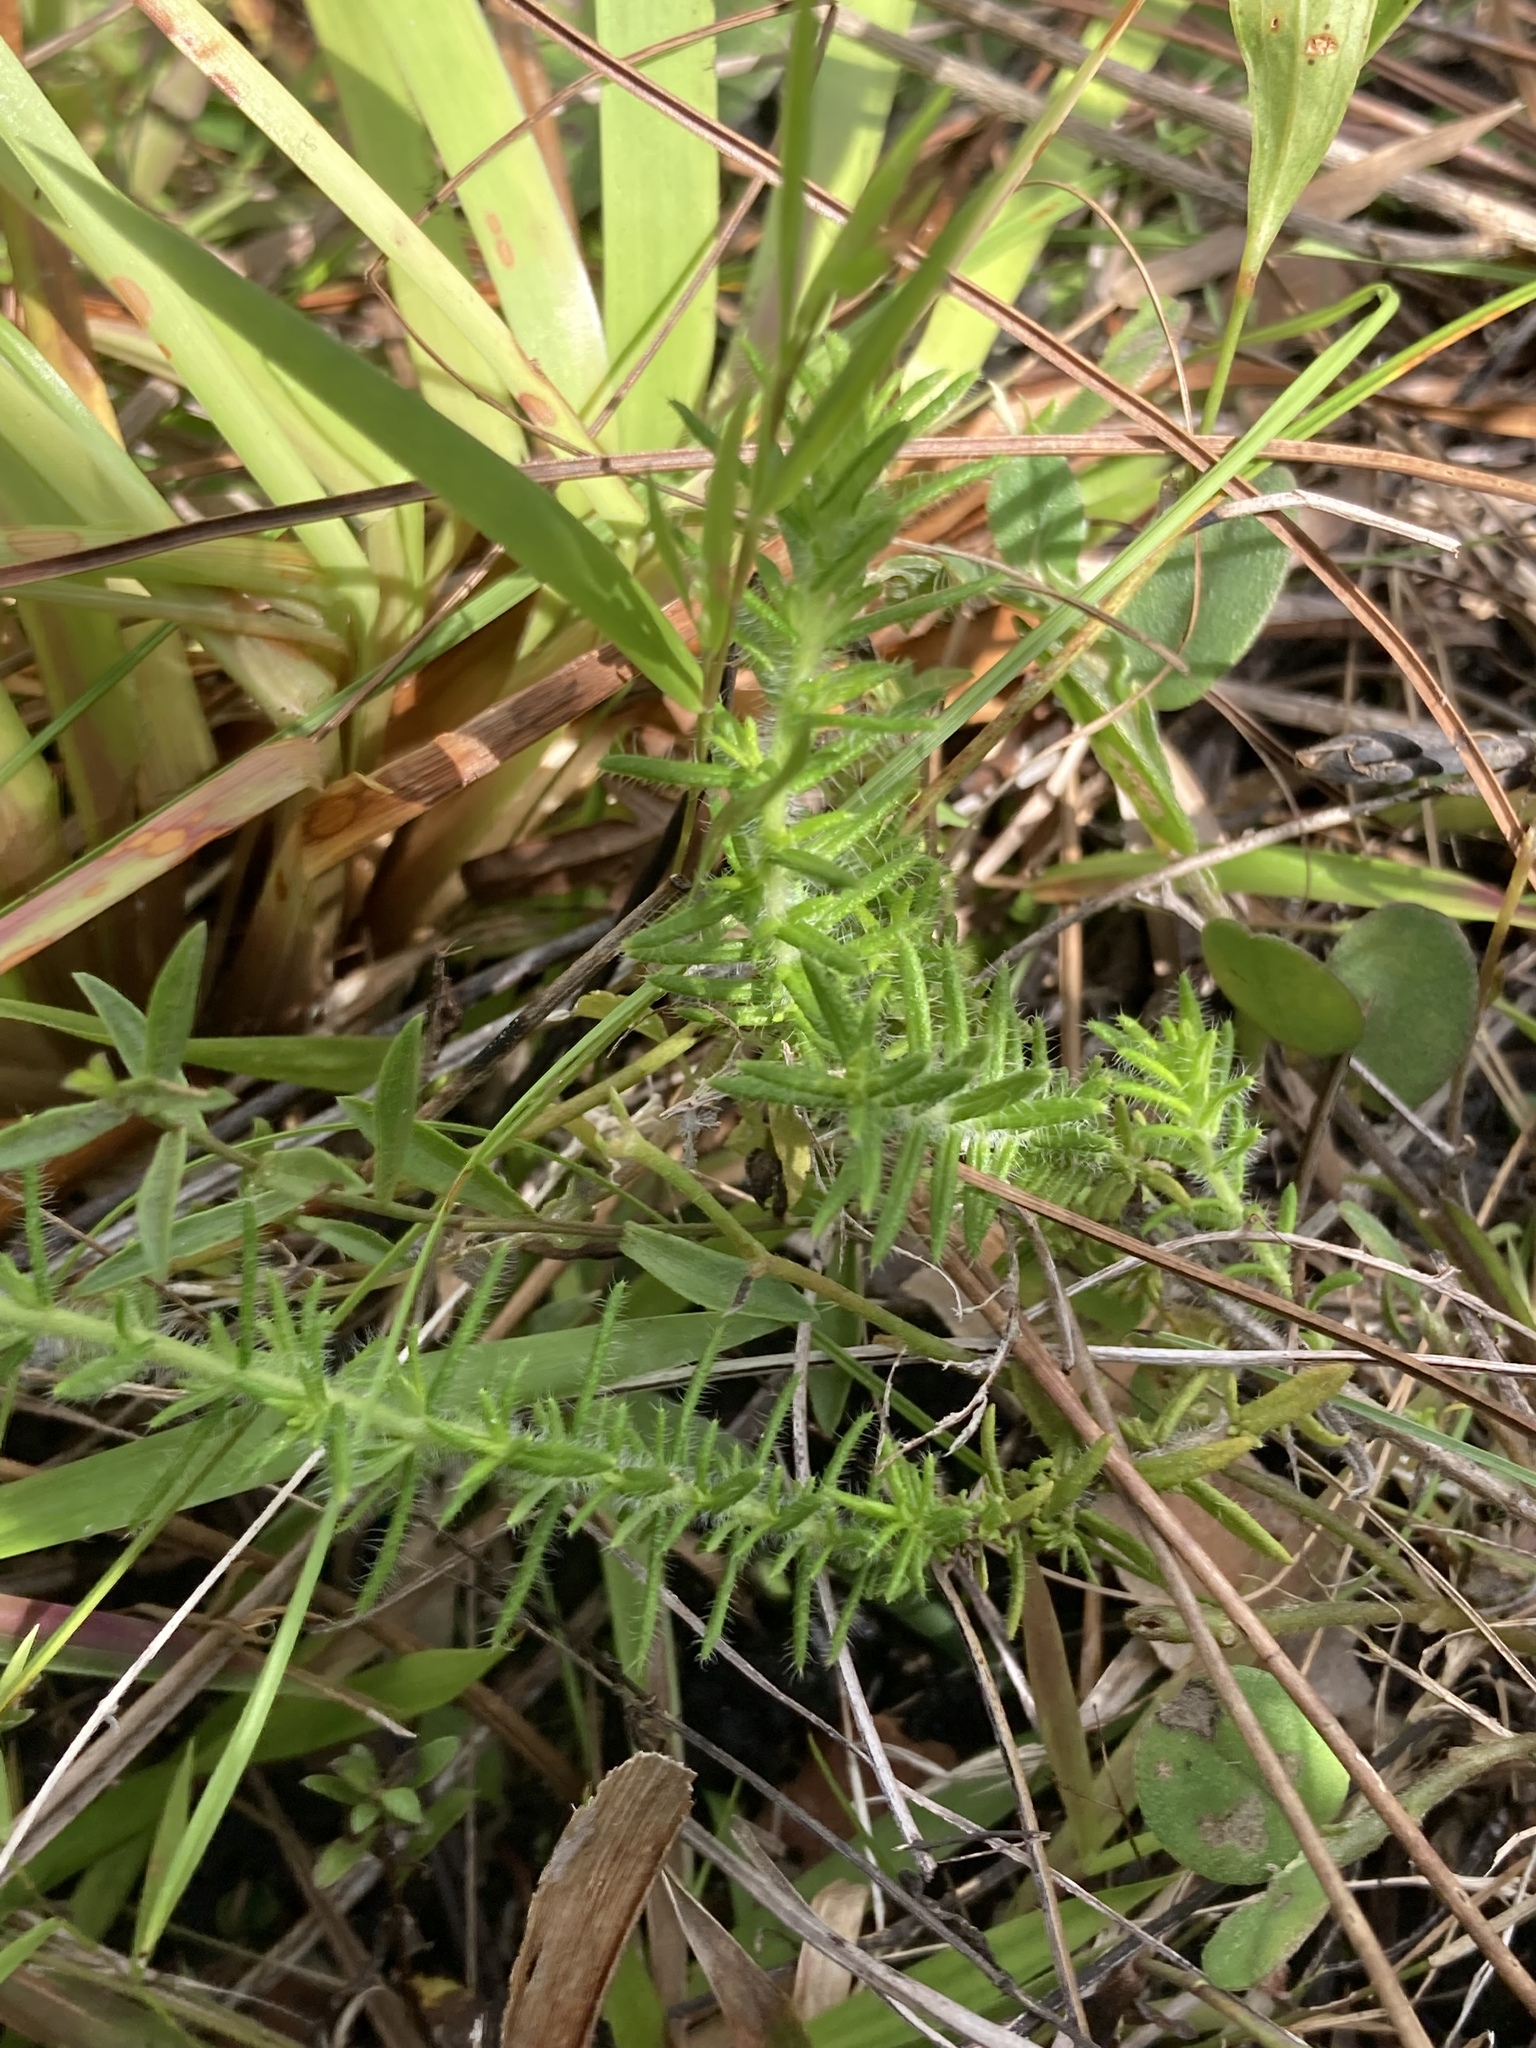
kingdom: Plantae
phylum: Tracheophyta
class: Magnoliopsida
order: Lamiales
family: Lamiaceae
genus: Piloblephis
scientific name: Piloblephis rigida
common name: Wild pennyroyal
